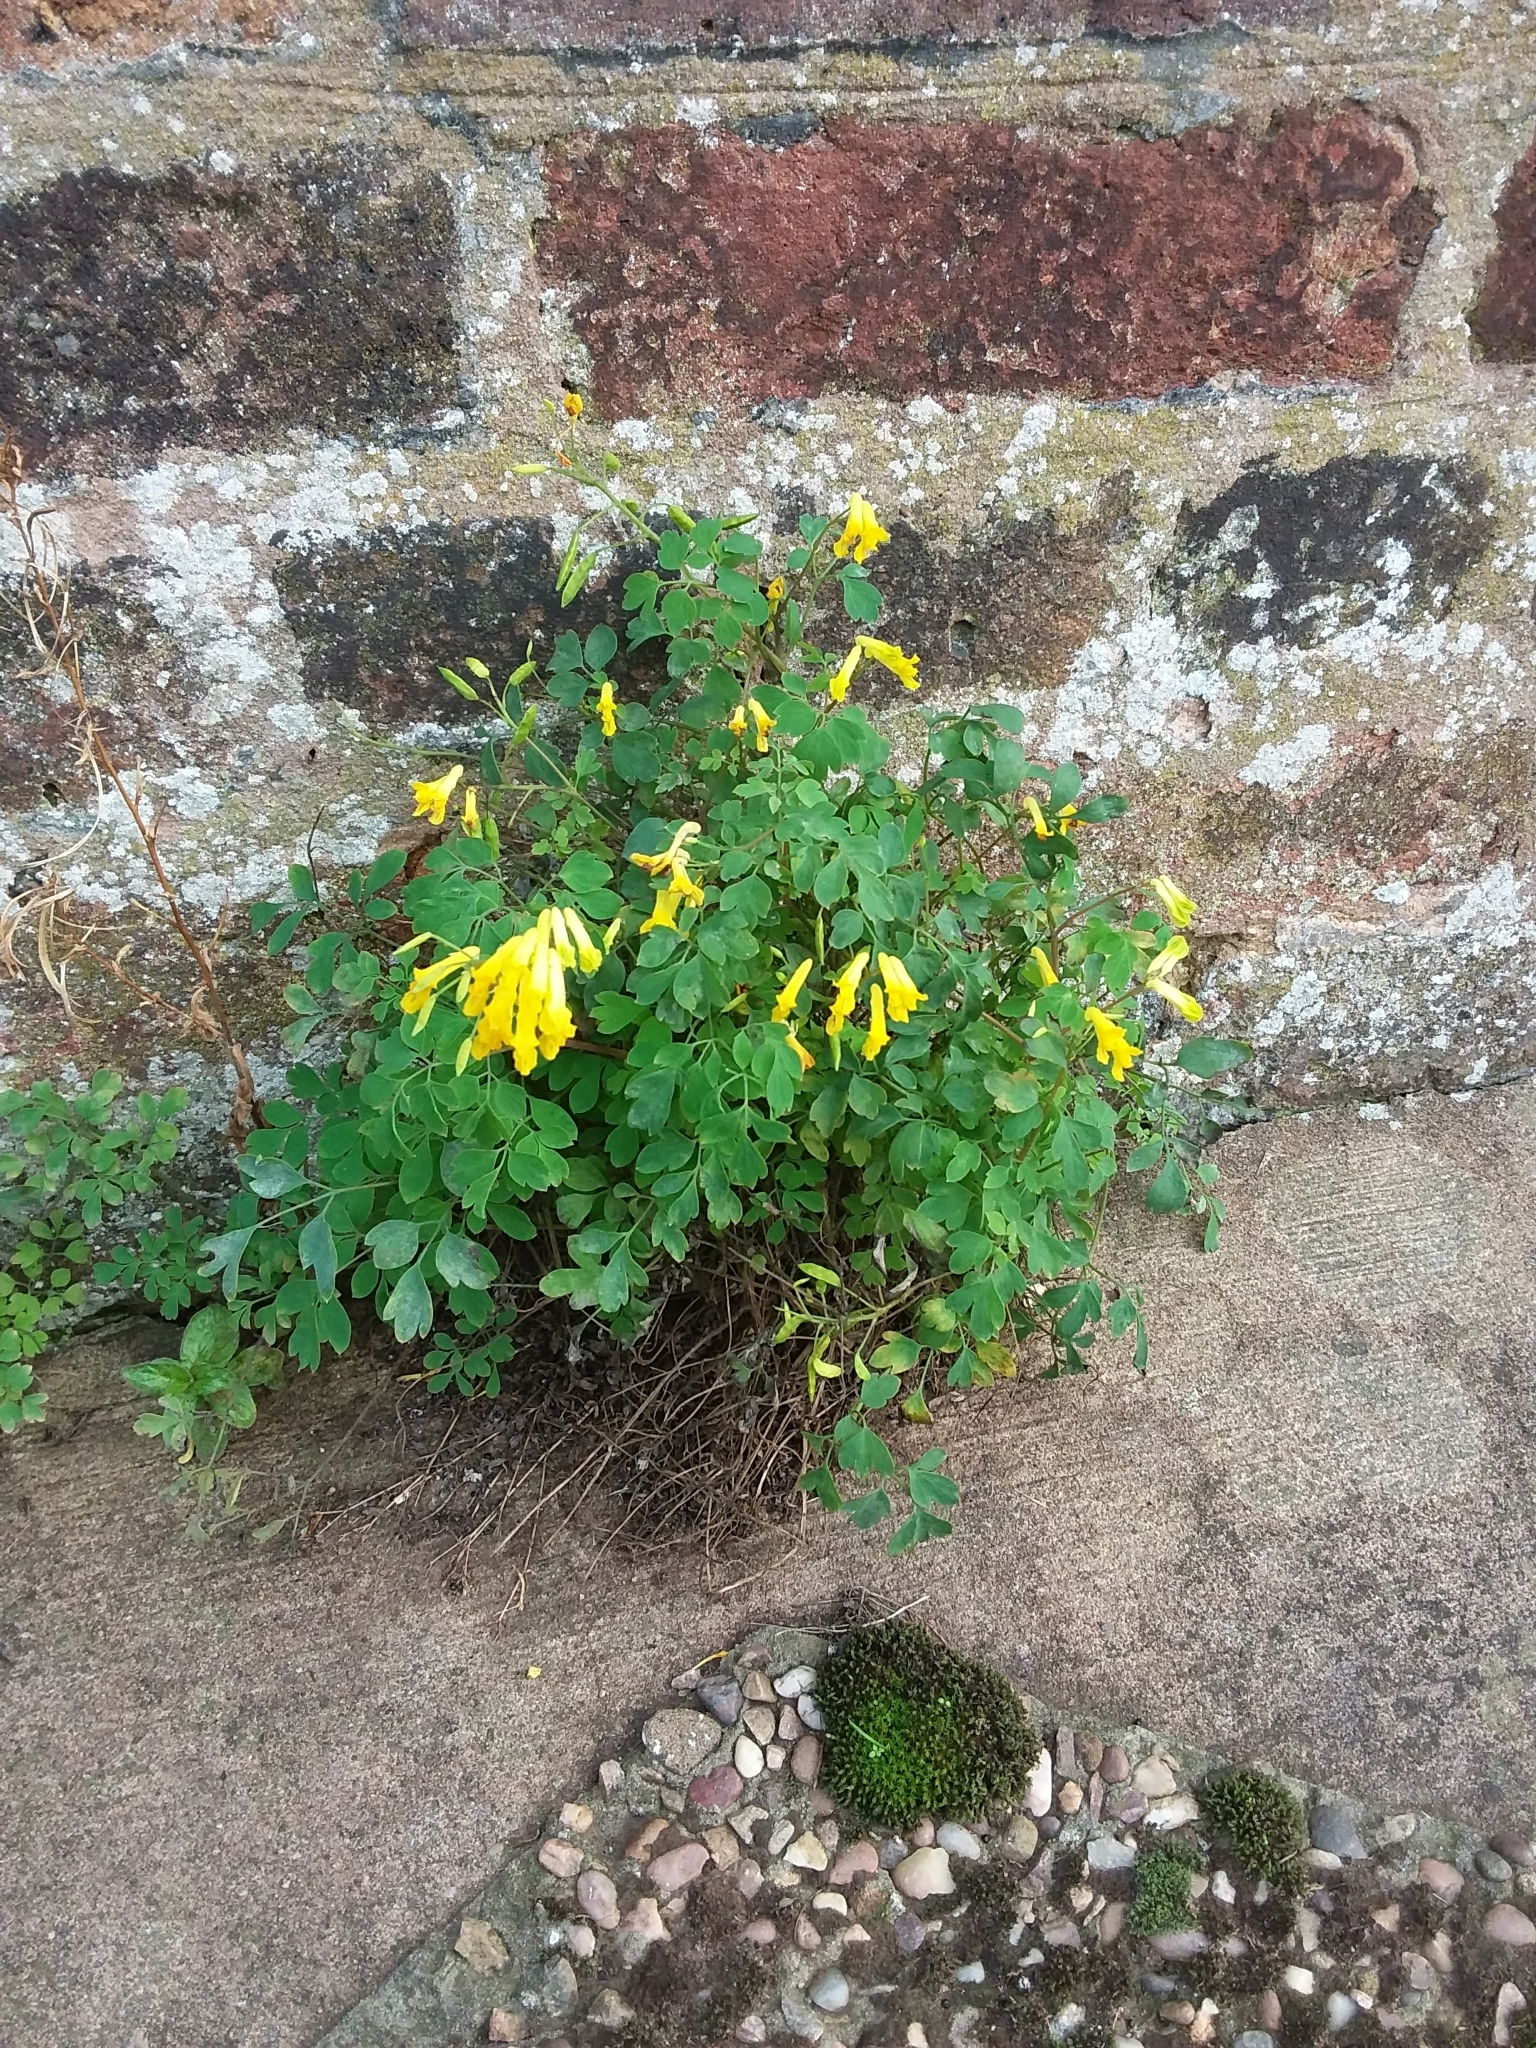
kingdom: Plantae
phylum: Tracheophyta
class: Magnoliopsida
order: Ranunculales
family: Papaveraceae
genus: Pseudofumaria
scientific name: Pseudofumaria lutea
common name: Yellow corydalis
